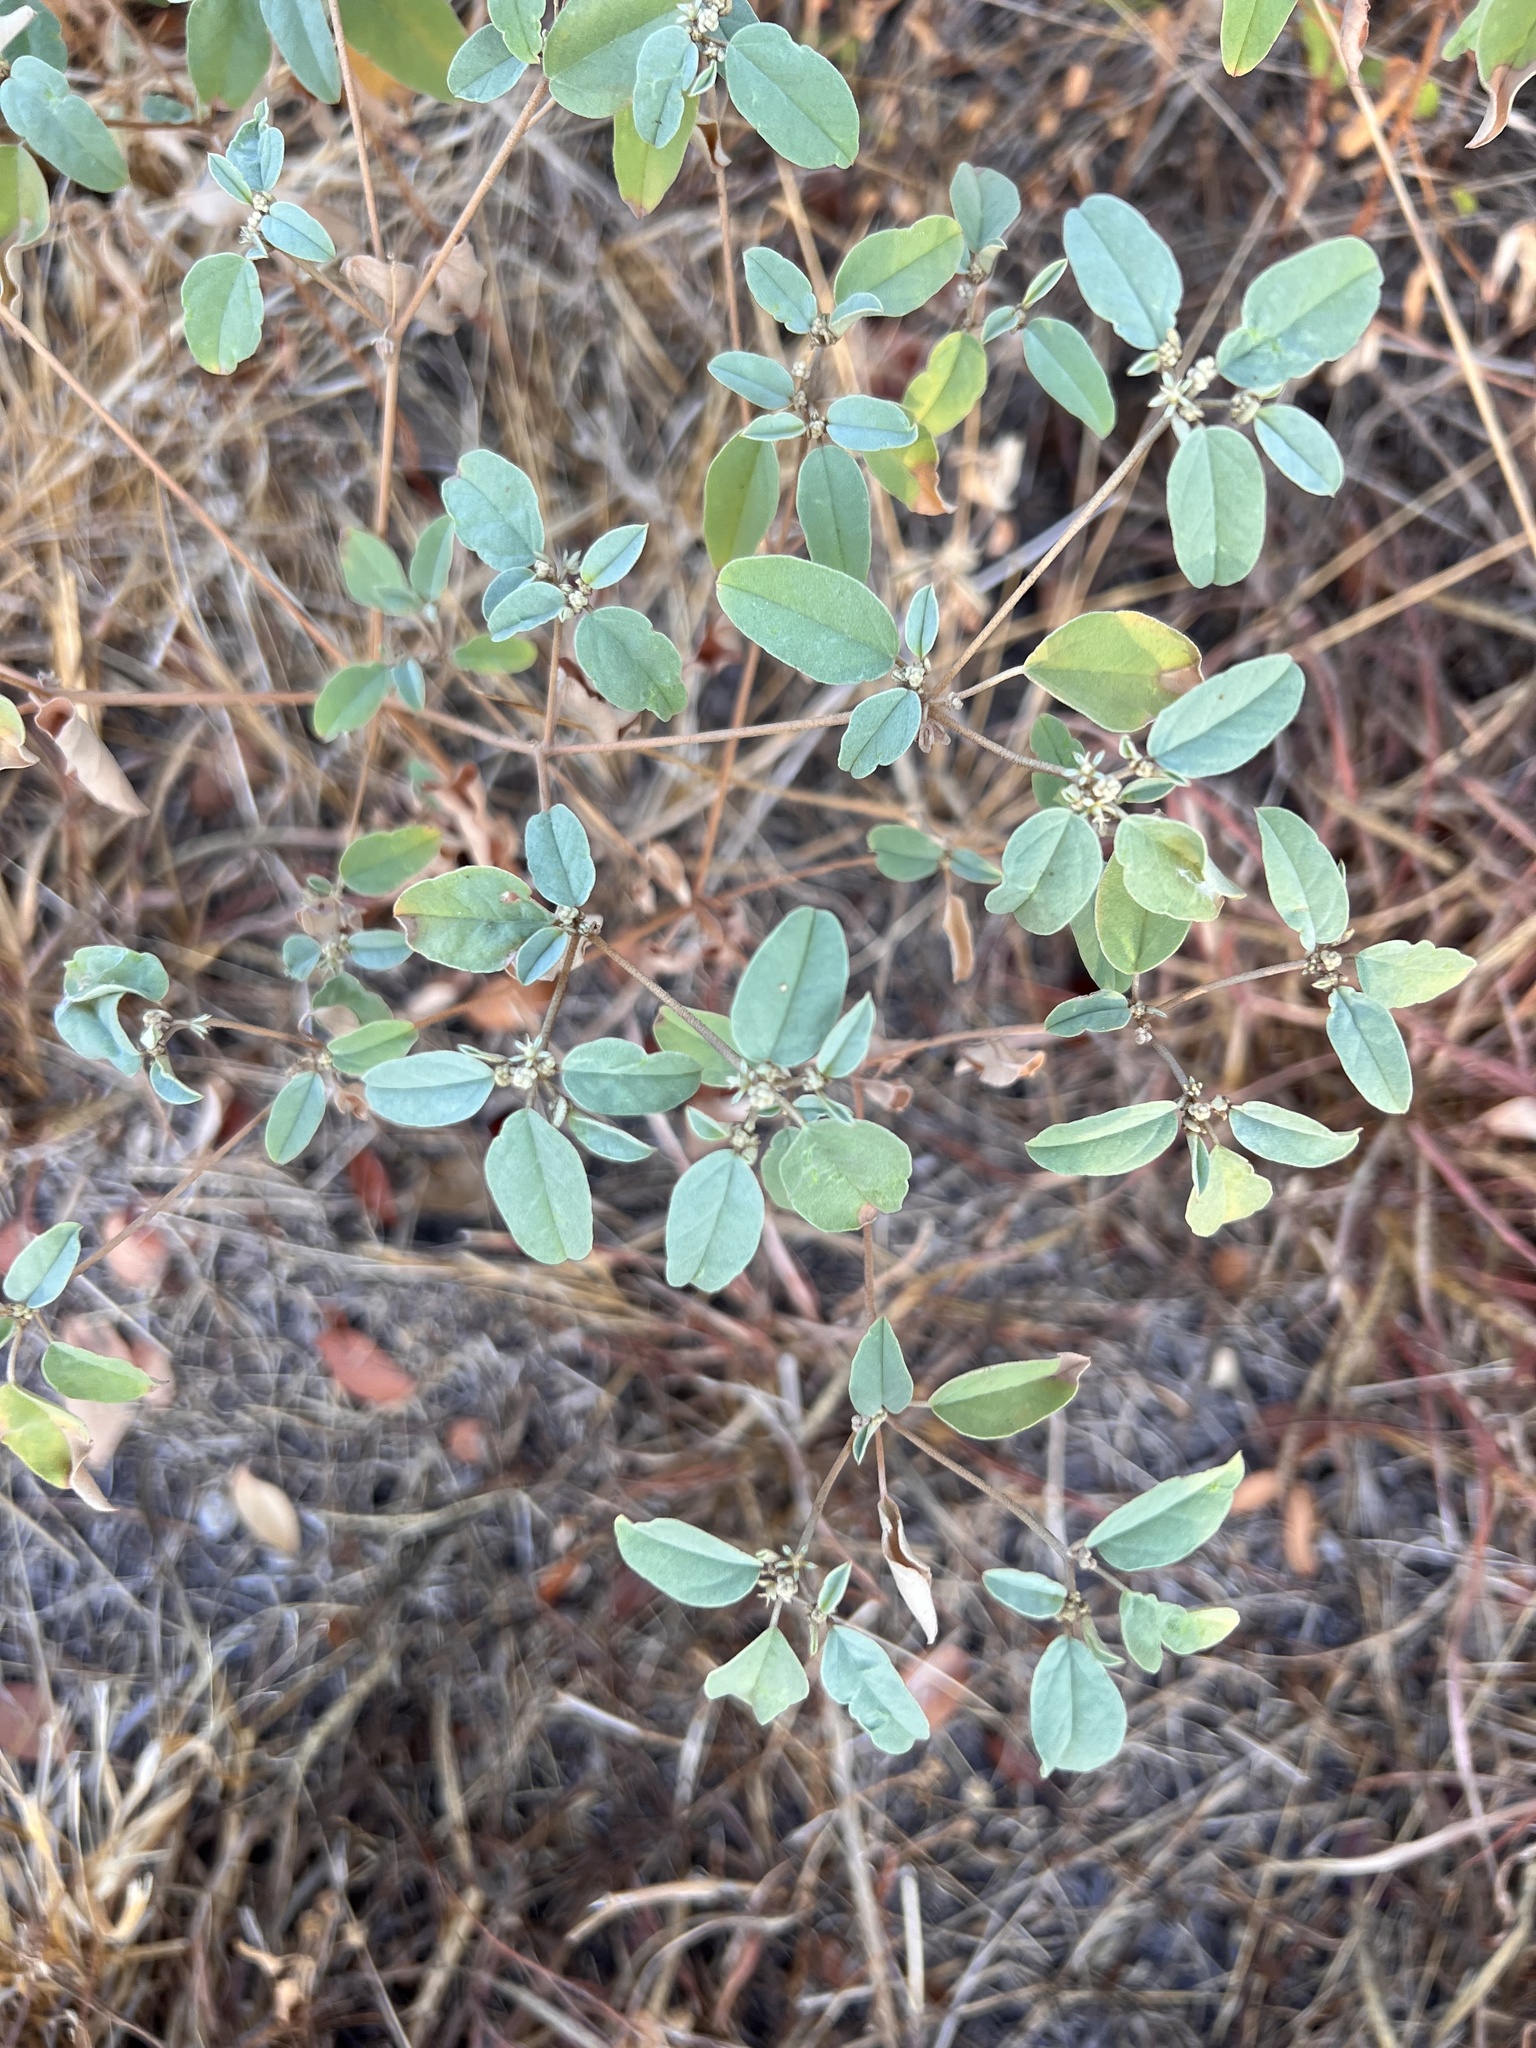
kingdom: Plantae
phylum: Tracheophyta
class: Magnoliopsida
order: Malpighiales
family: Euphorbiaceae
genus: Croton
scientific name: Croton monanthogynus
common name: One-seed croton
